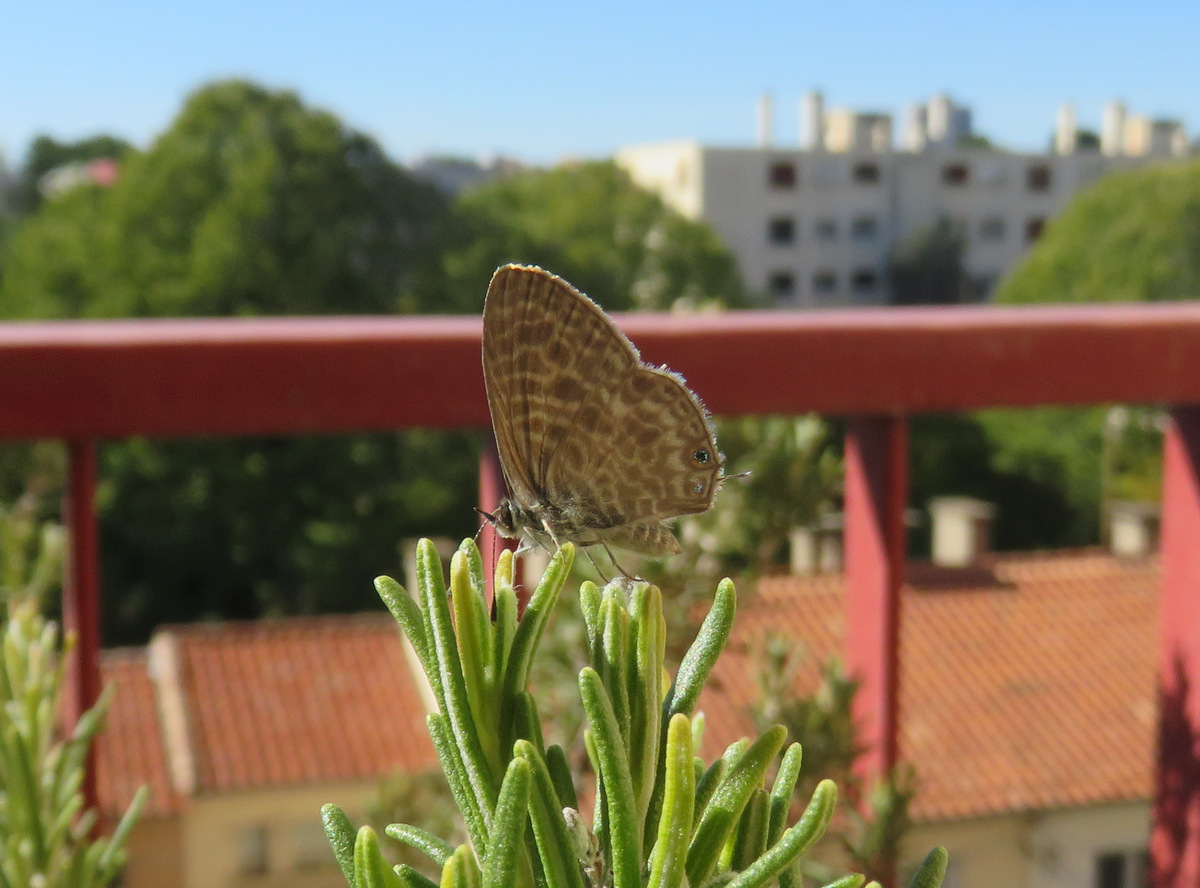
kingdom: Animalia
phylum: Arthropoda
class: Insecta
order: Lepidoptera
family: Lycaenidae
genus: Leptotes
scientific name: Leptotes pirithous
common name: Lang's short-tailed blue
